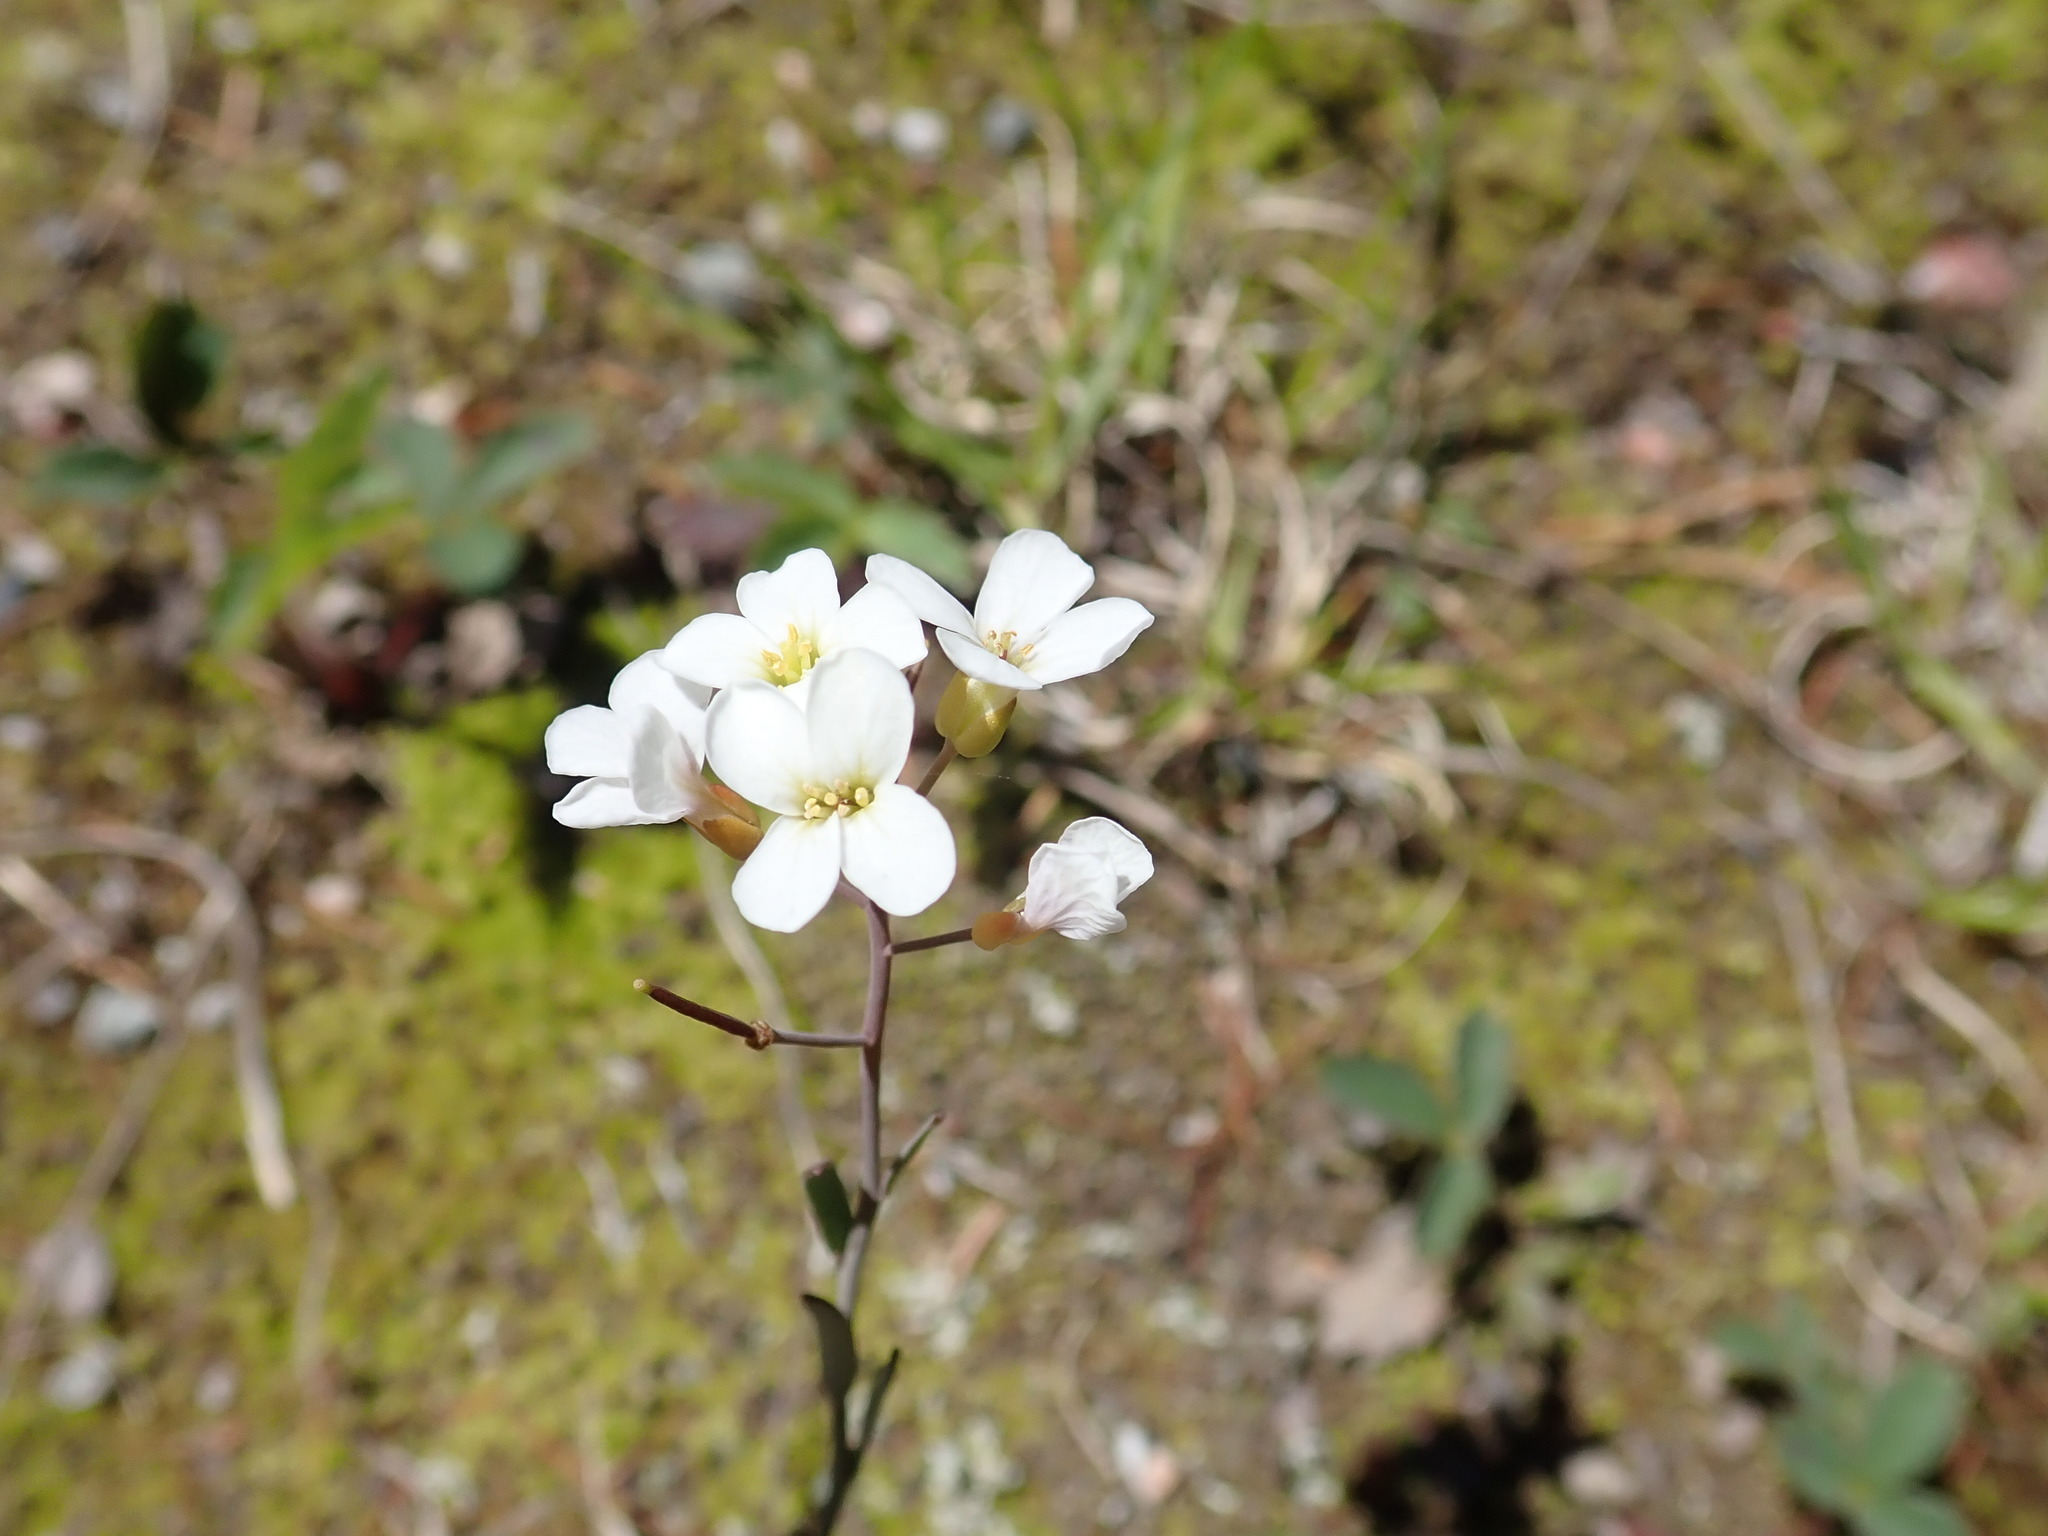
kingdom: Plantae
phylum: Tracheophyta
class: Magnoliopsida
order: Brassicales
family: Brassicaceae
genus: Arabidopsis
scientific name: Arabidopsis lyrata
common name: Lyrate rockcress
